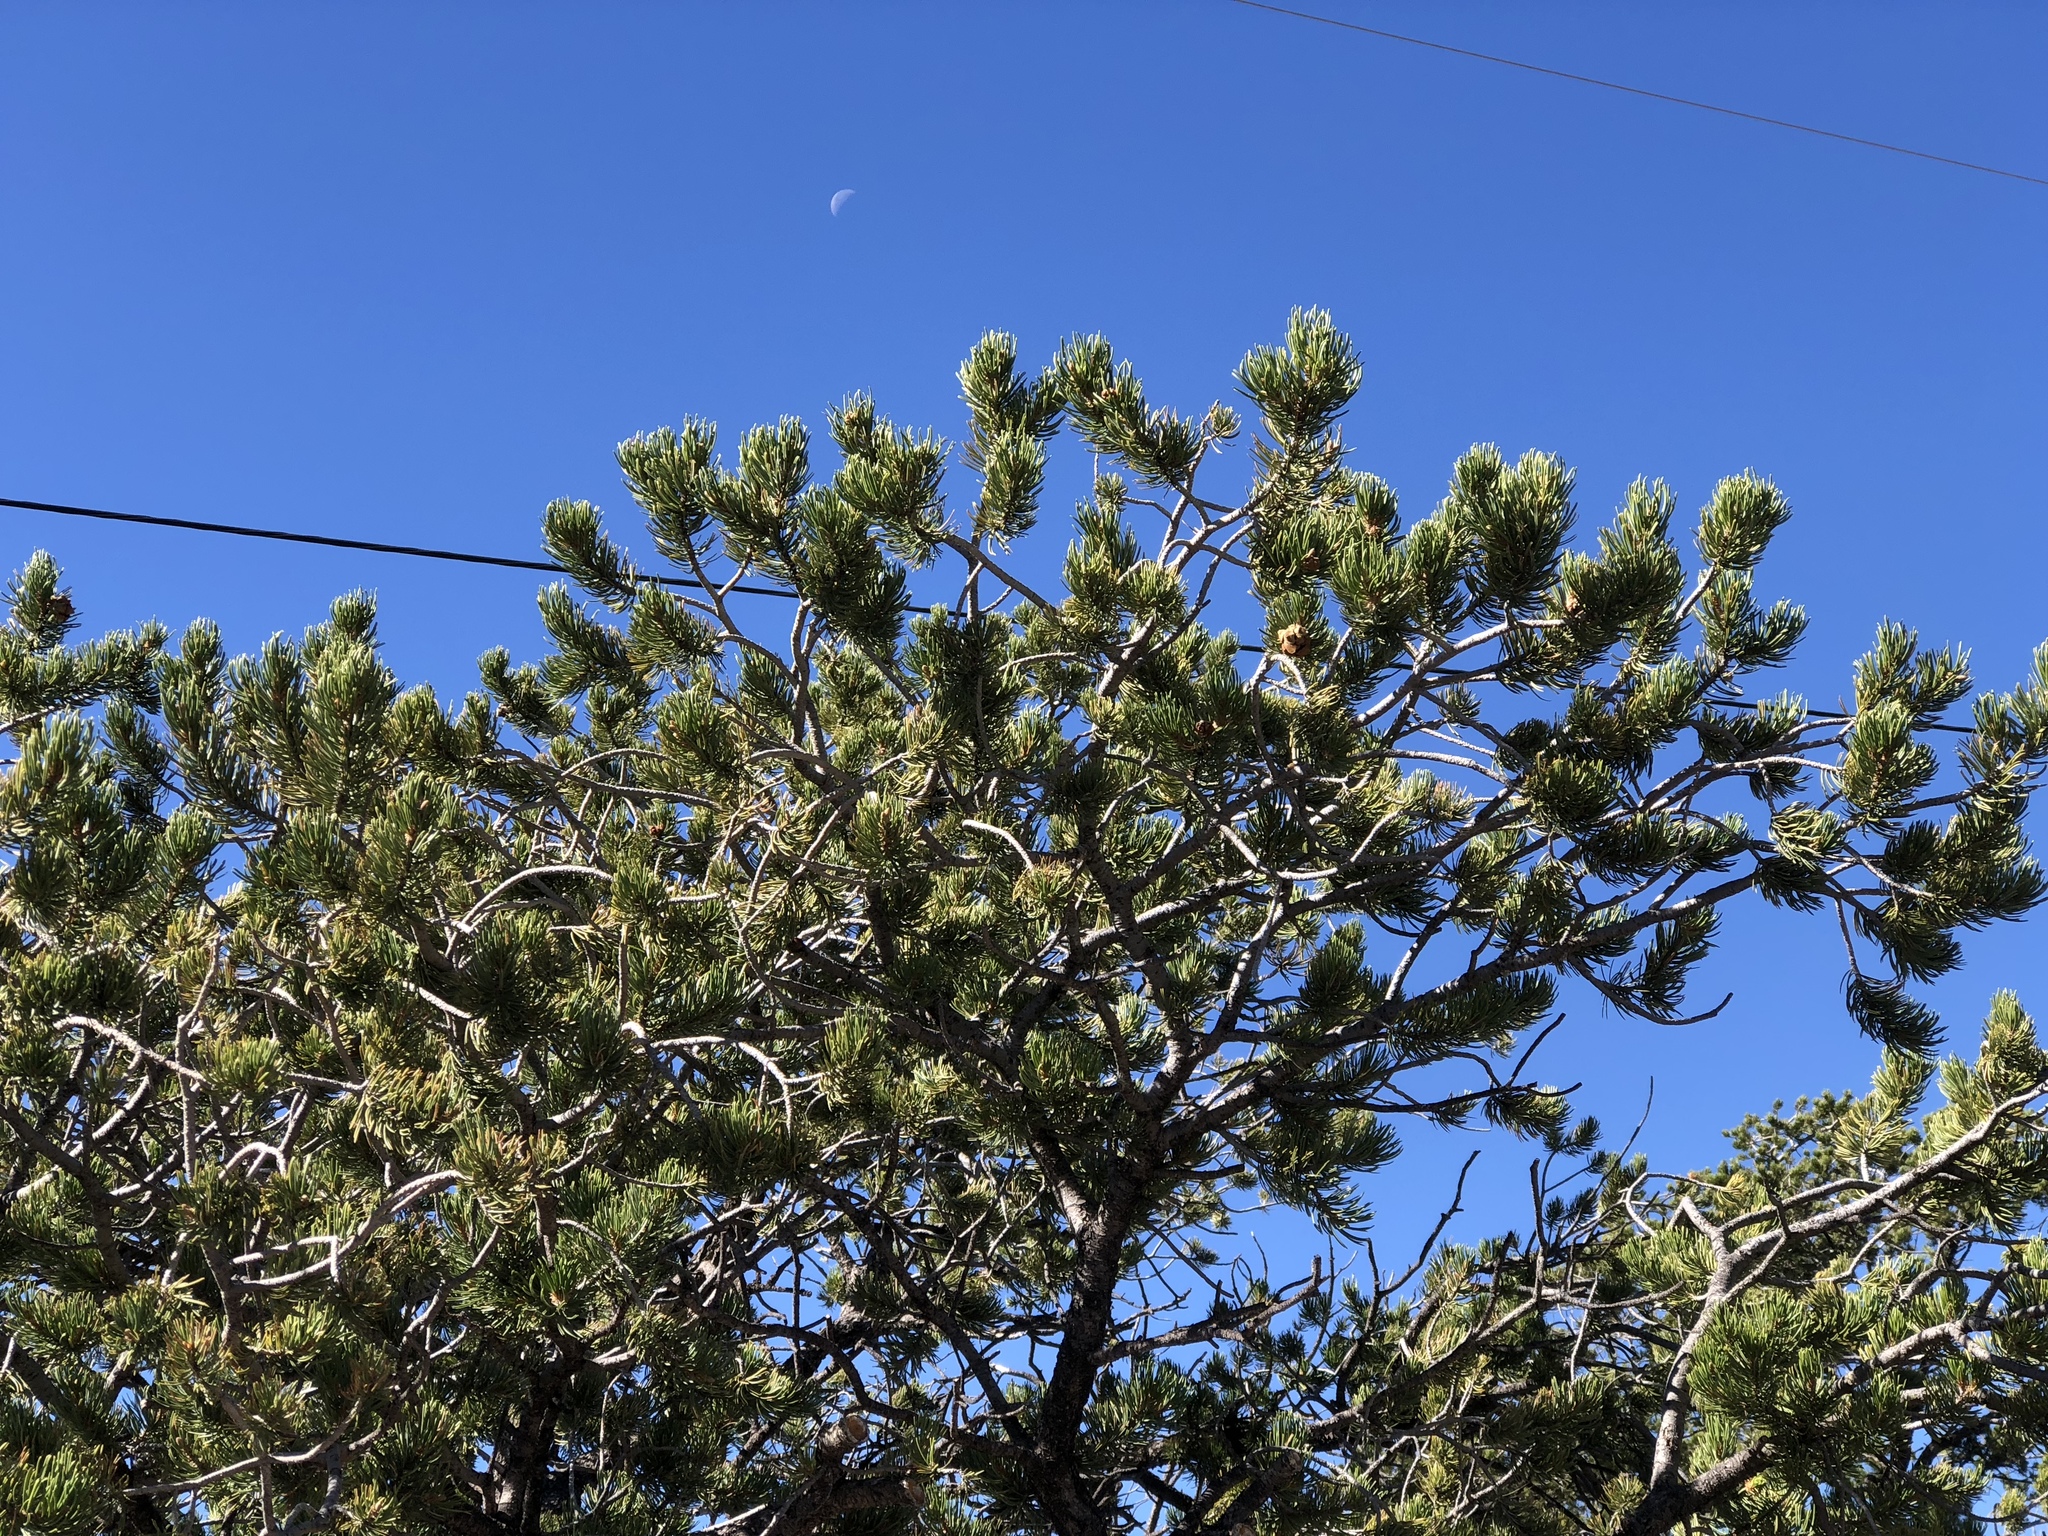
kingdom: Plantae
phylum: Tracheophyta
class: Pinopsida
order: Pinales
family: Pinaceae
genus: Pinus
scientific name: Pinus edulis
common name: Colorado pinyon
